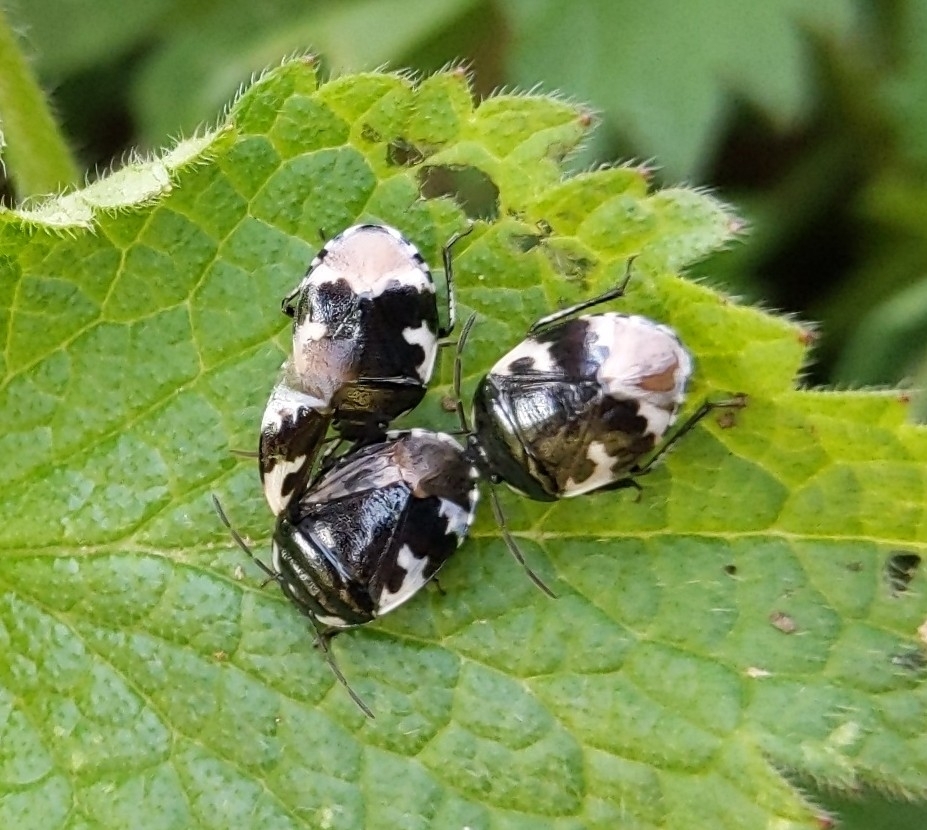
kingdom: Animalia
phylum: Arthropoda
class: Insecta
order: Hemiptera
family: Cydnidae
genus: Tritomegas
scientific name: Tritomegas bicolor
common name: Pied shieldbug
